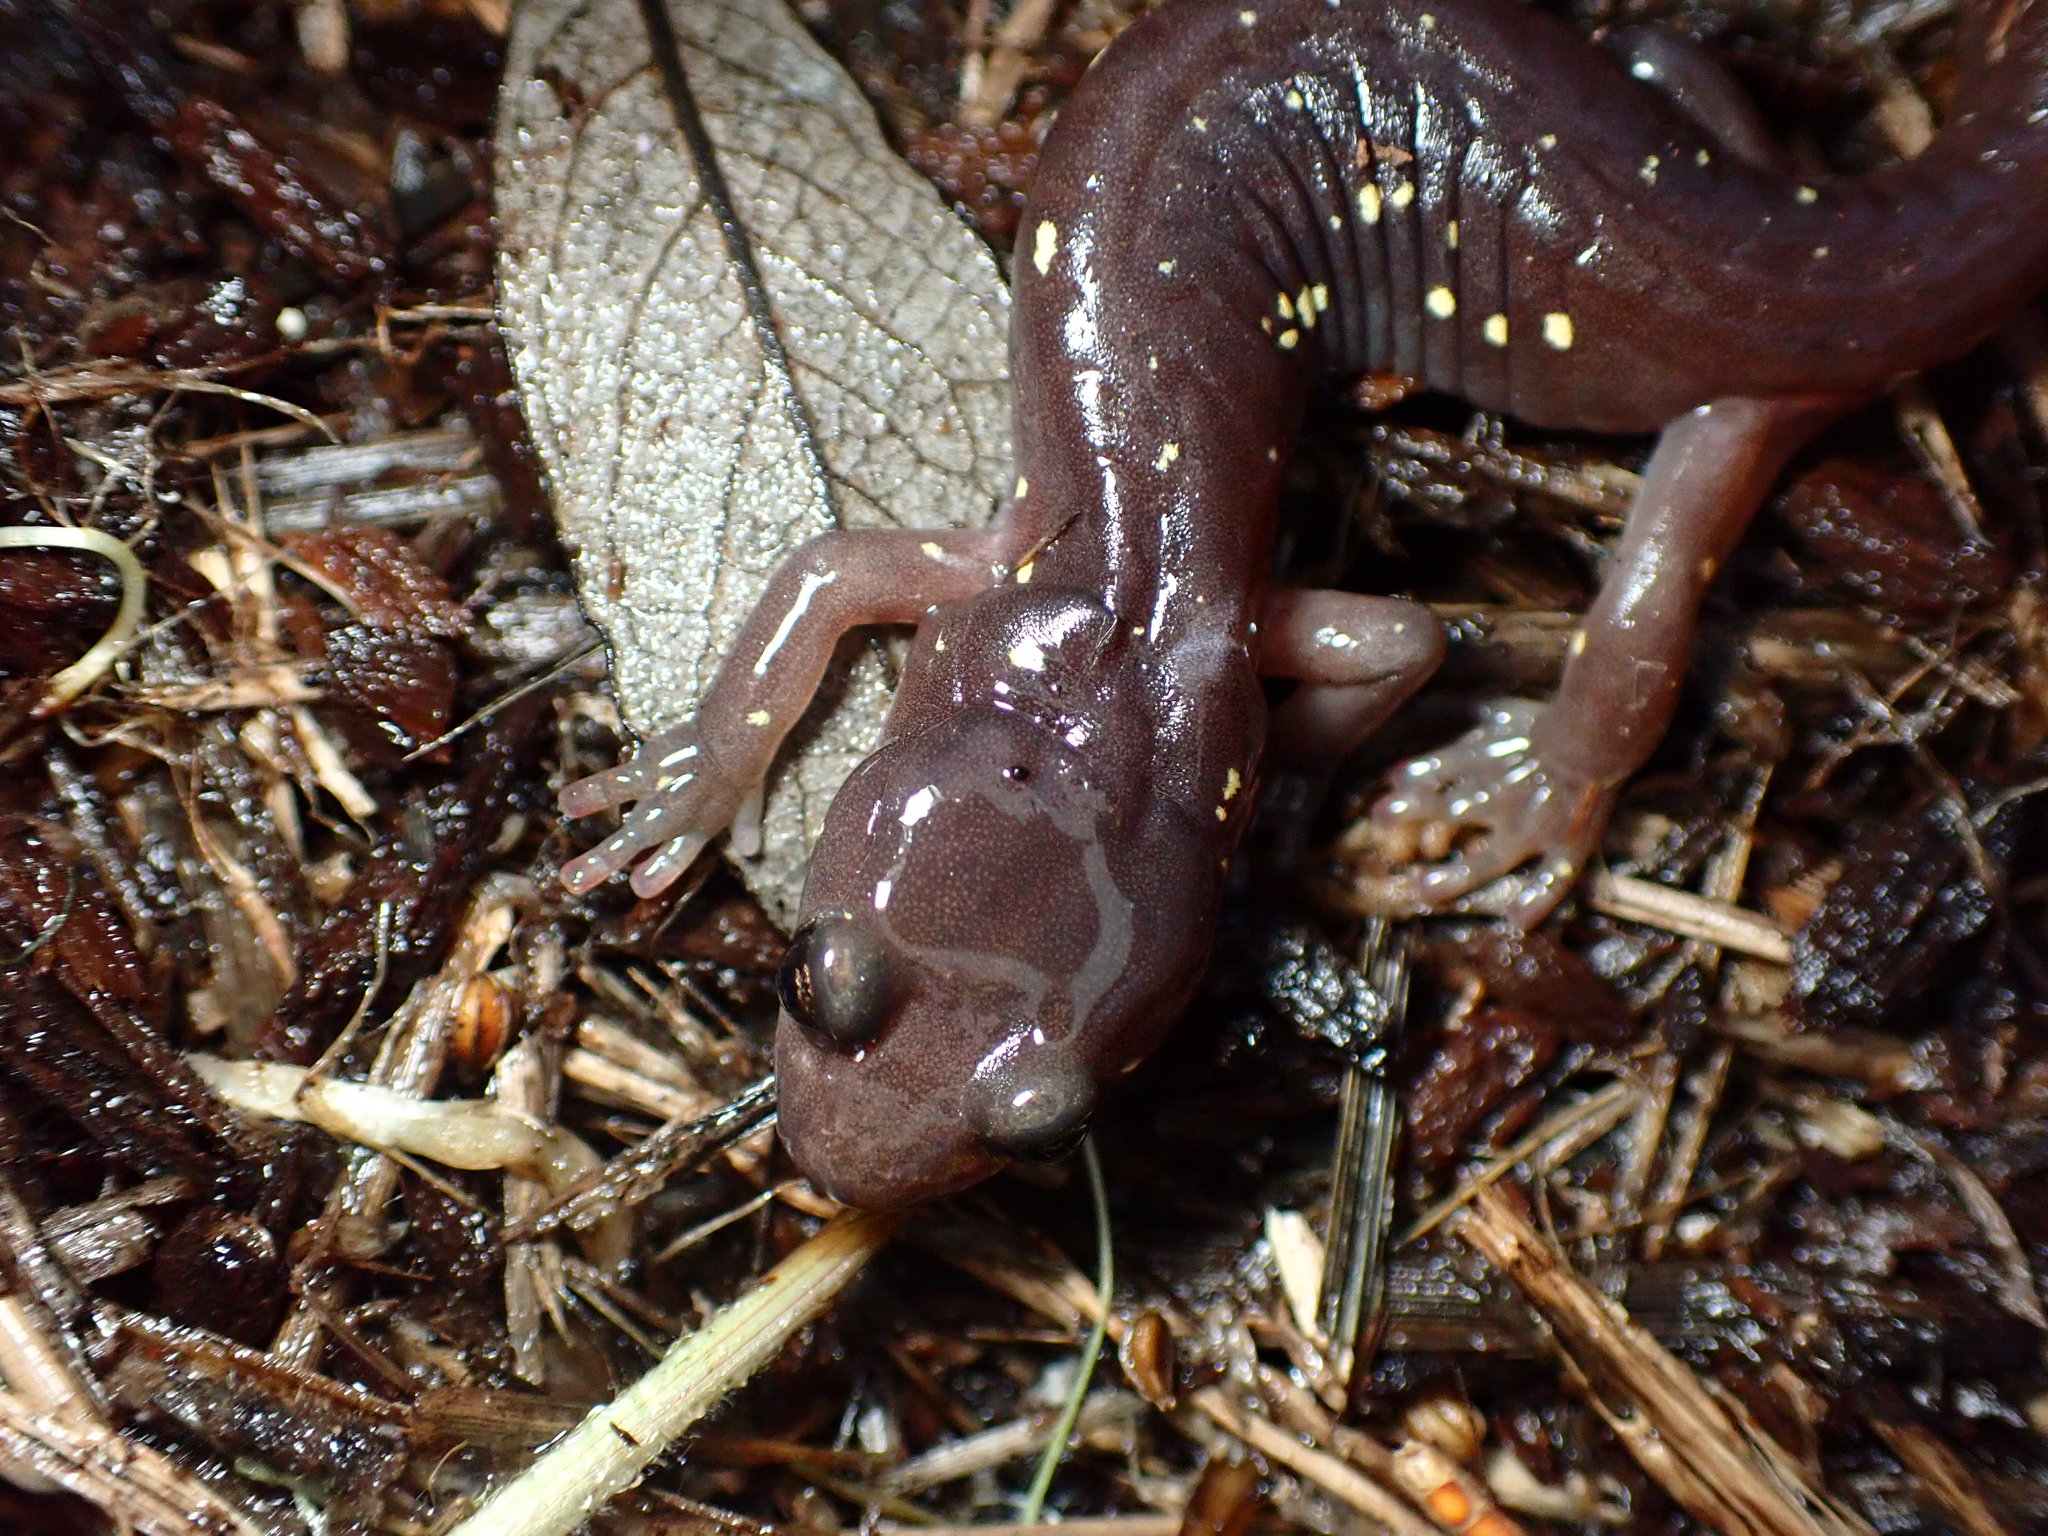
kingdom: Animalia
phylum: Chordata
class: Amphibia
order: Caudata
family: Plethodontidae
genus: Aneides
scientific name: Aneides lugubris
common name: Arboreal salamander
